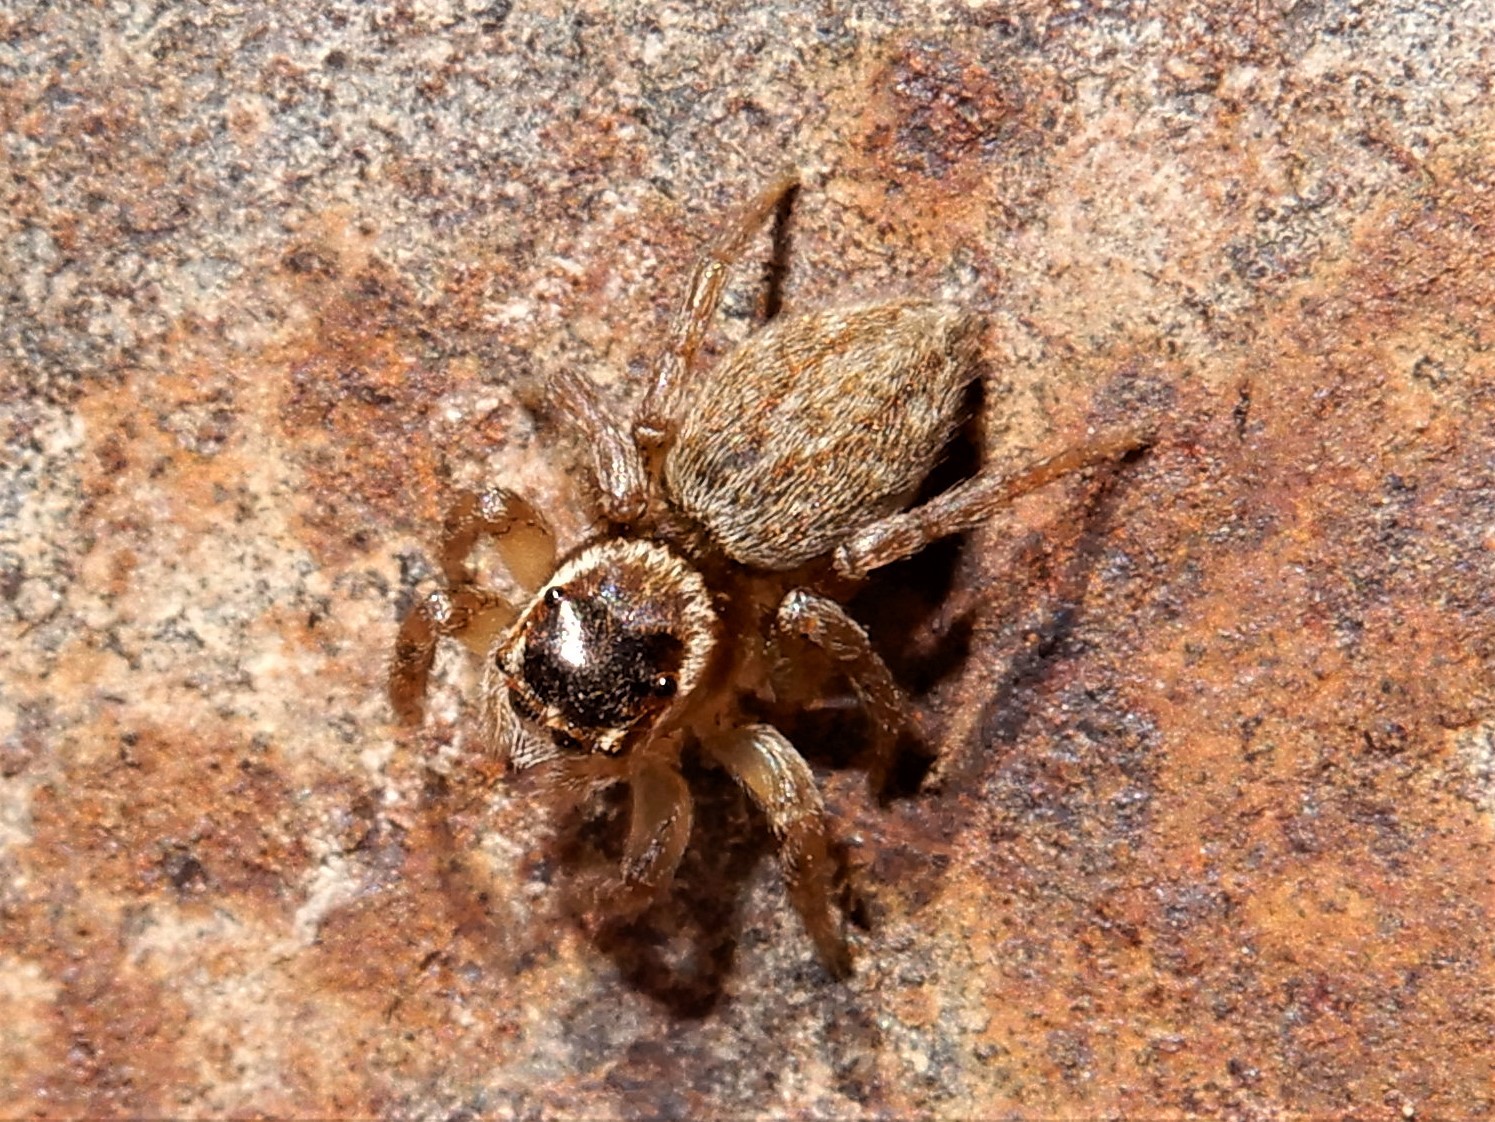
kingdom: Animalia
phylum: Arthropoda
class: Arachnida
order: Araneae
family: Salticidae
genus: Maratus
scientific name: Maratus griseus
